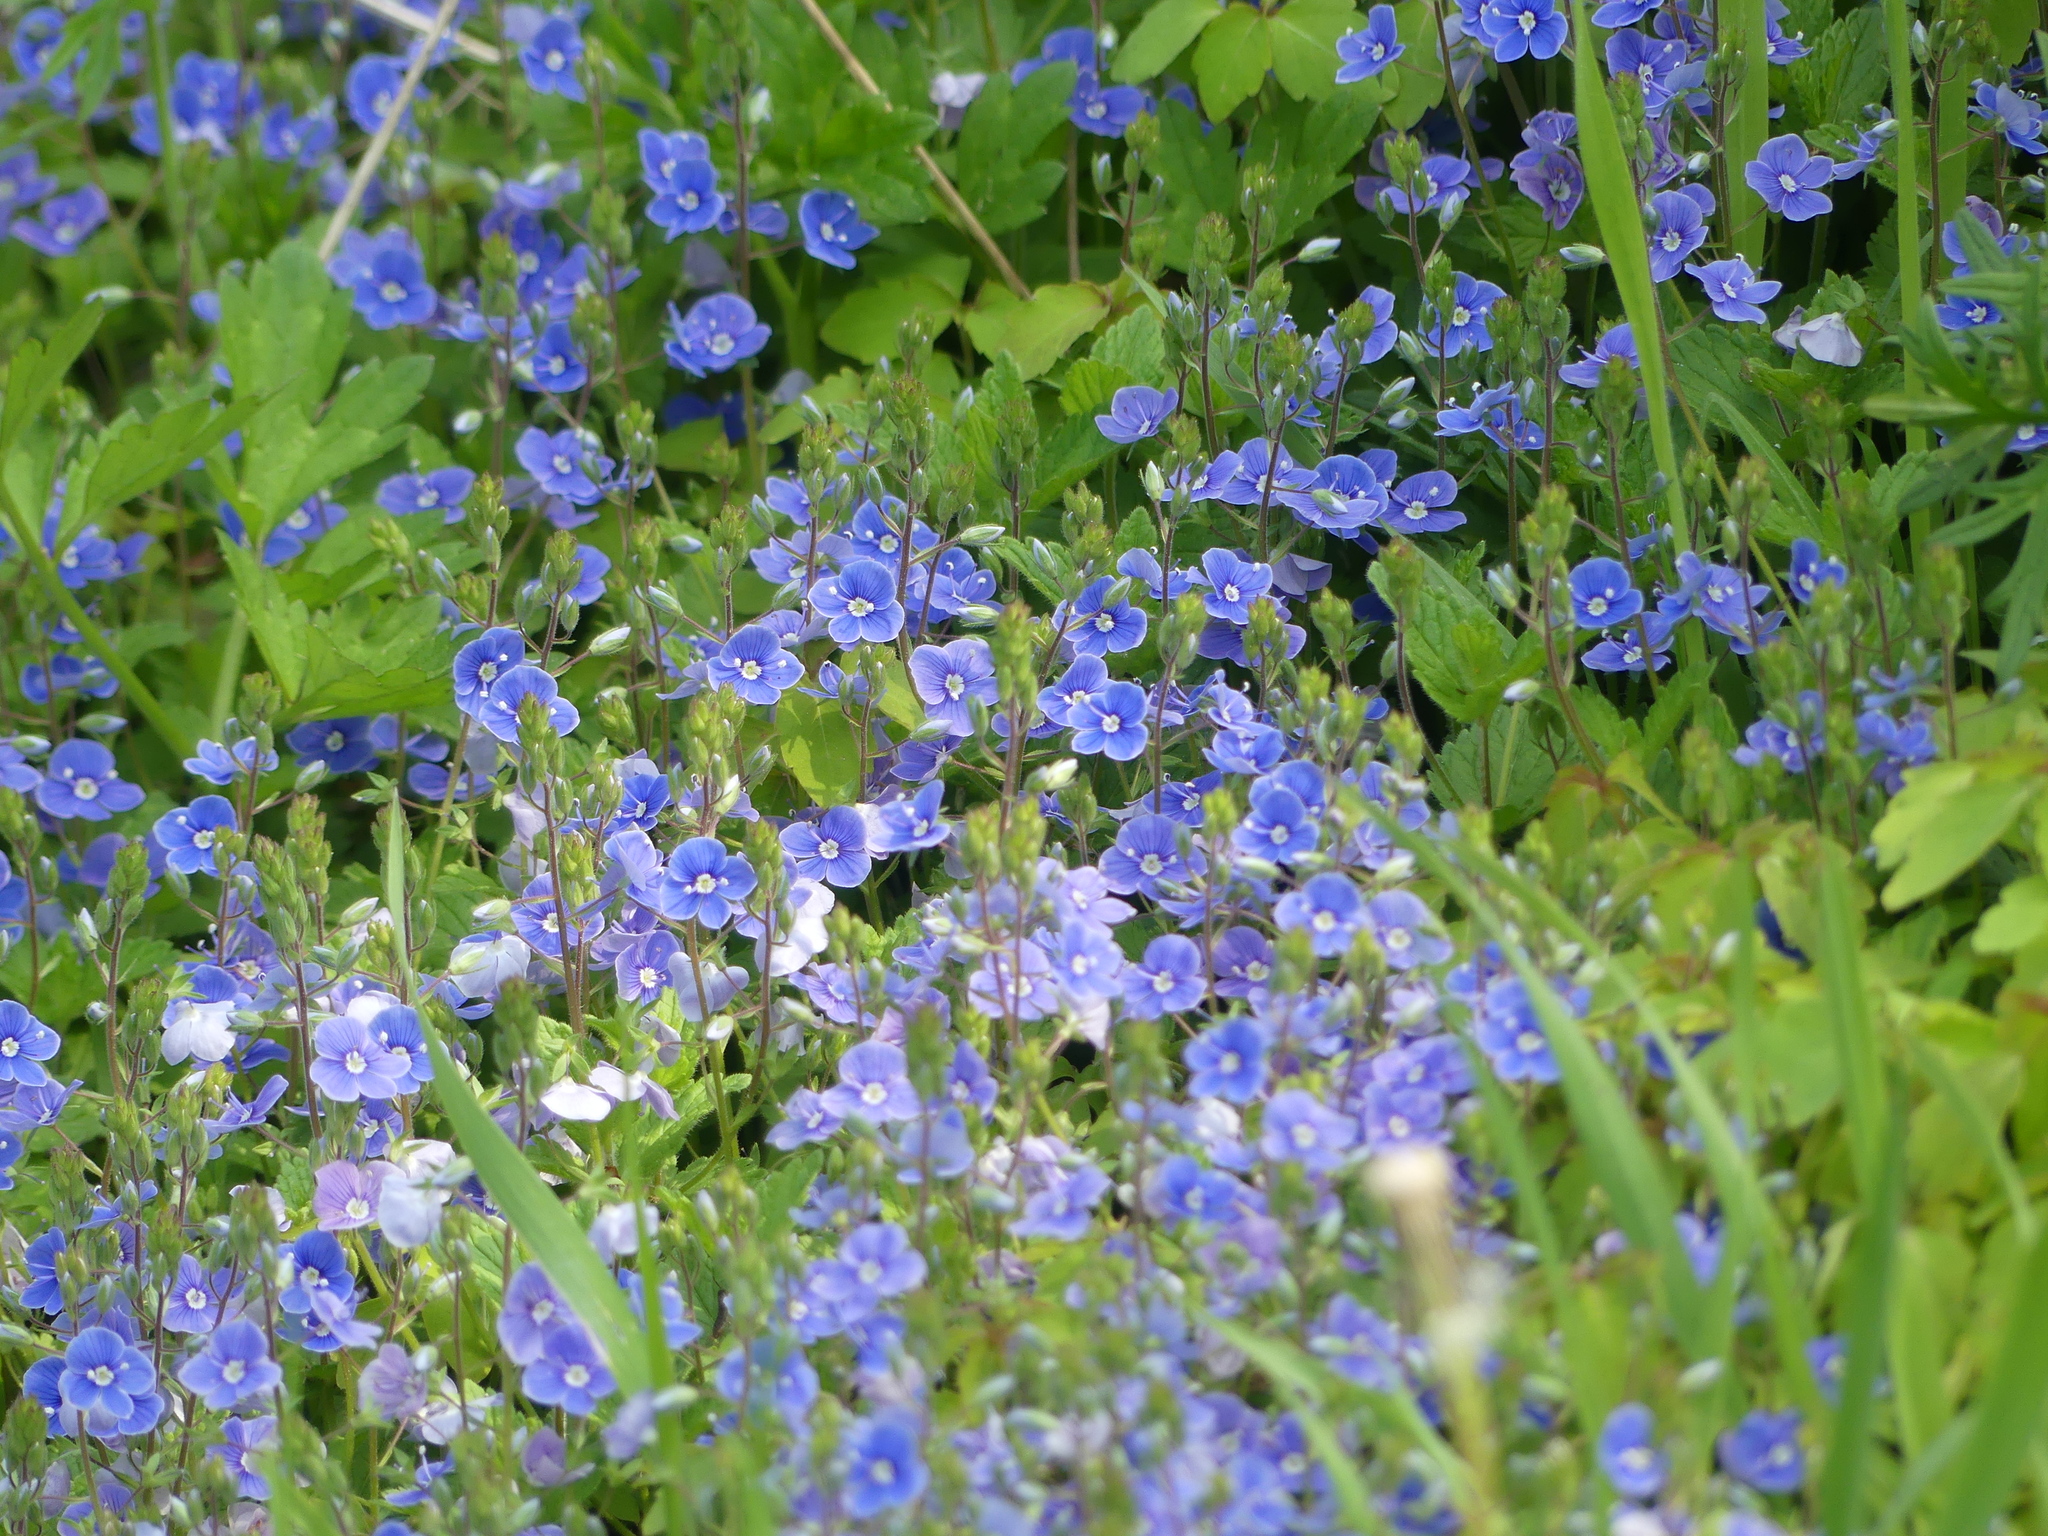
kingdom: Plantae
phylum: Tracheophyta
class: Magnoliopsida
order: Lamiales
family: Plantaginaceae
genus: Veronica
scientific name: Veronica chamaedrys
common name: Germander speedwell
